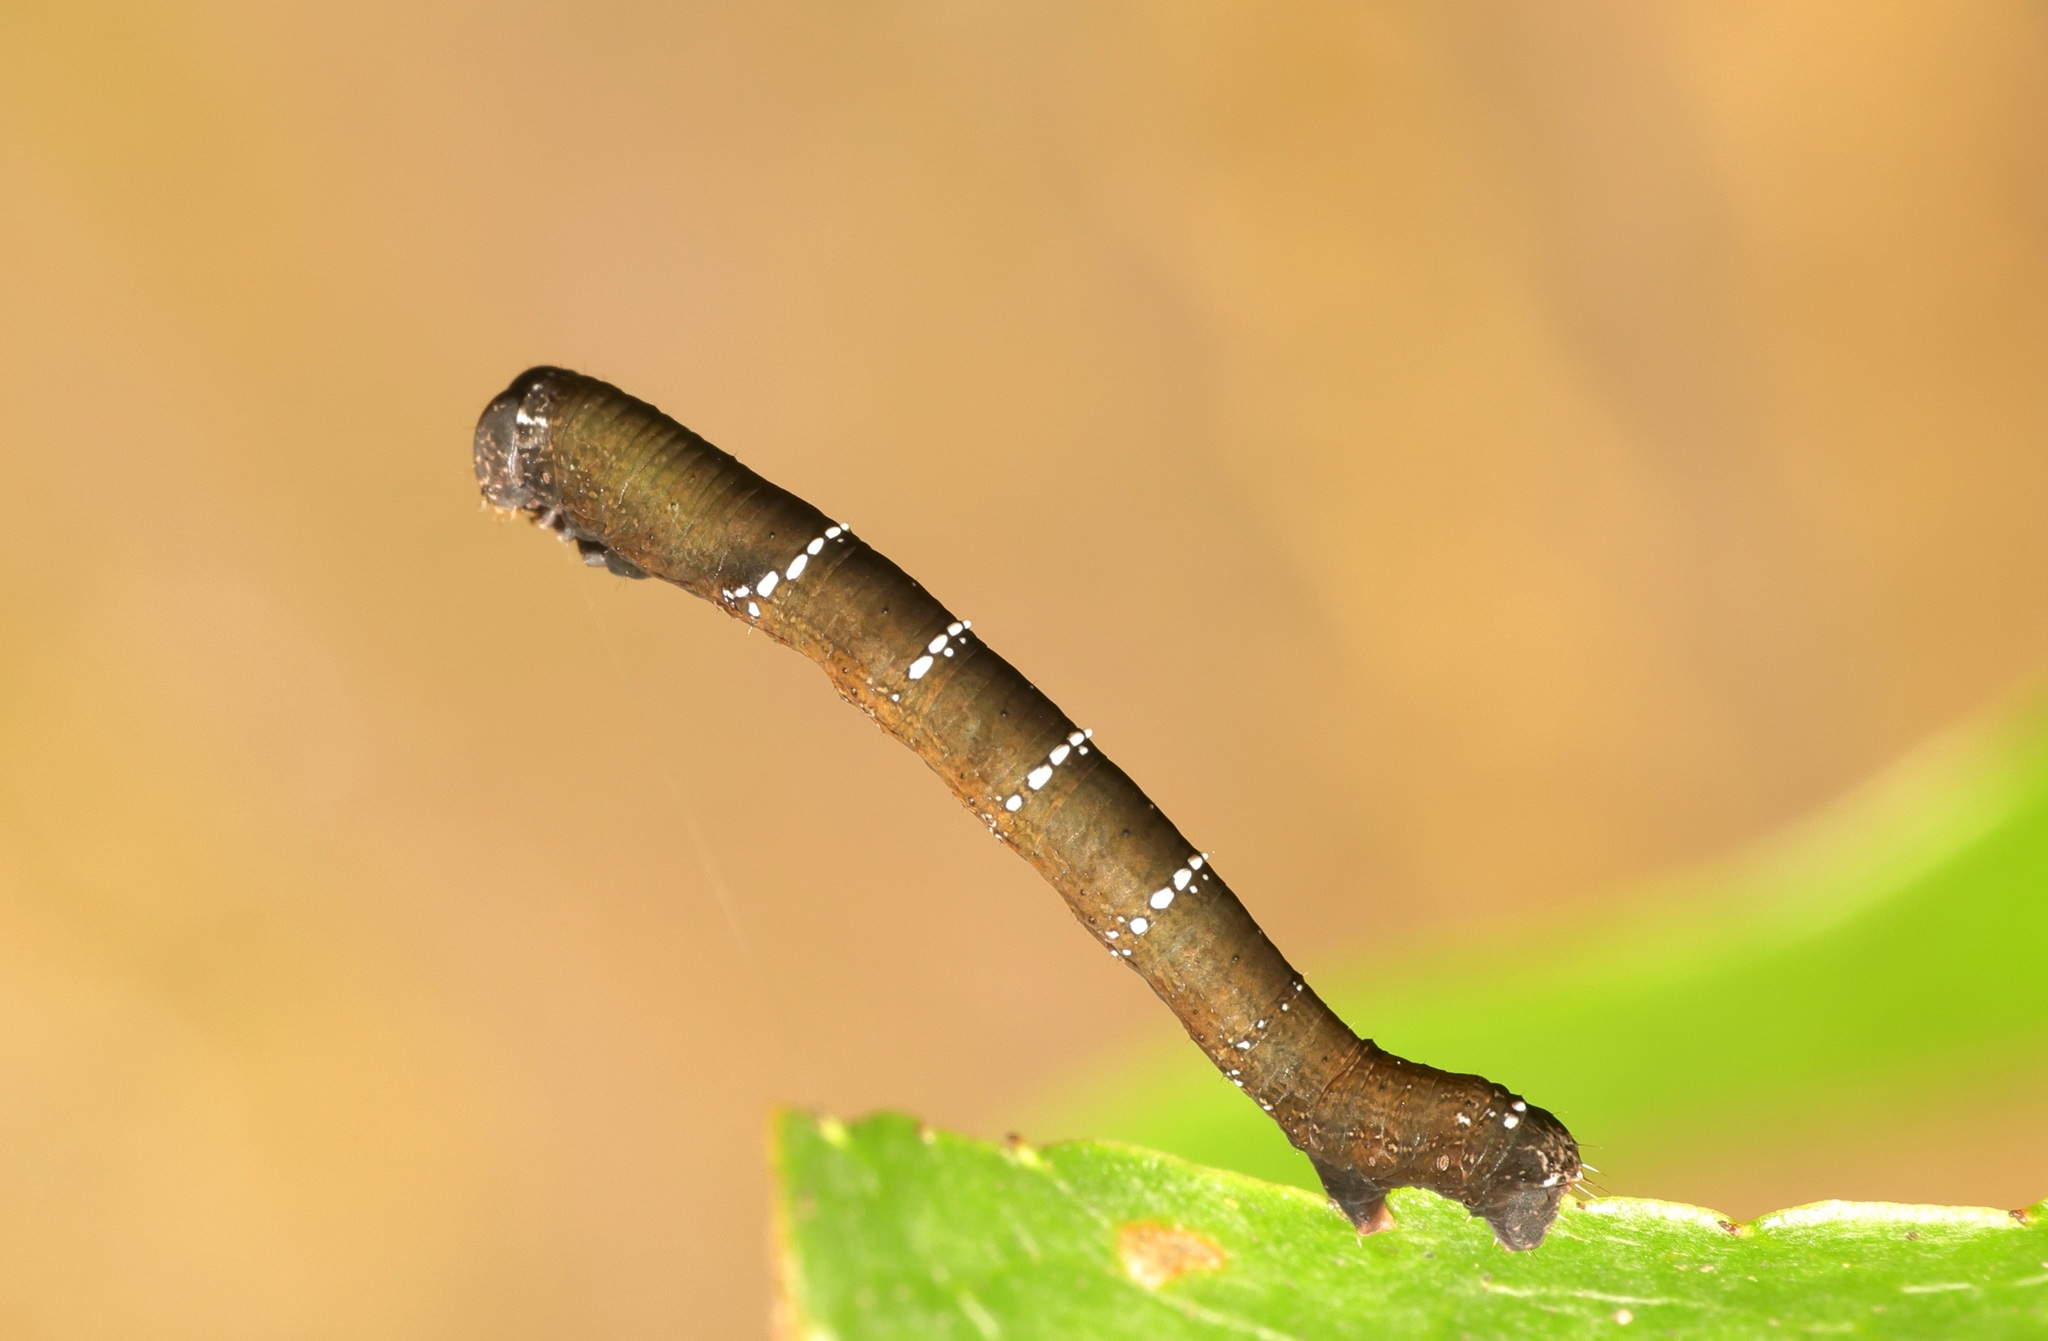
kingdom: Animalia
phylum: Arthropoda
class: Insecta
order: Lepidoptera
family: Geometridae
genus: Hyposidra
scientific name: Hyposidra talaca
